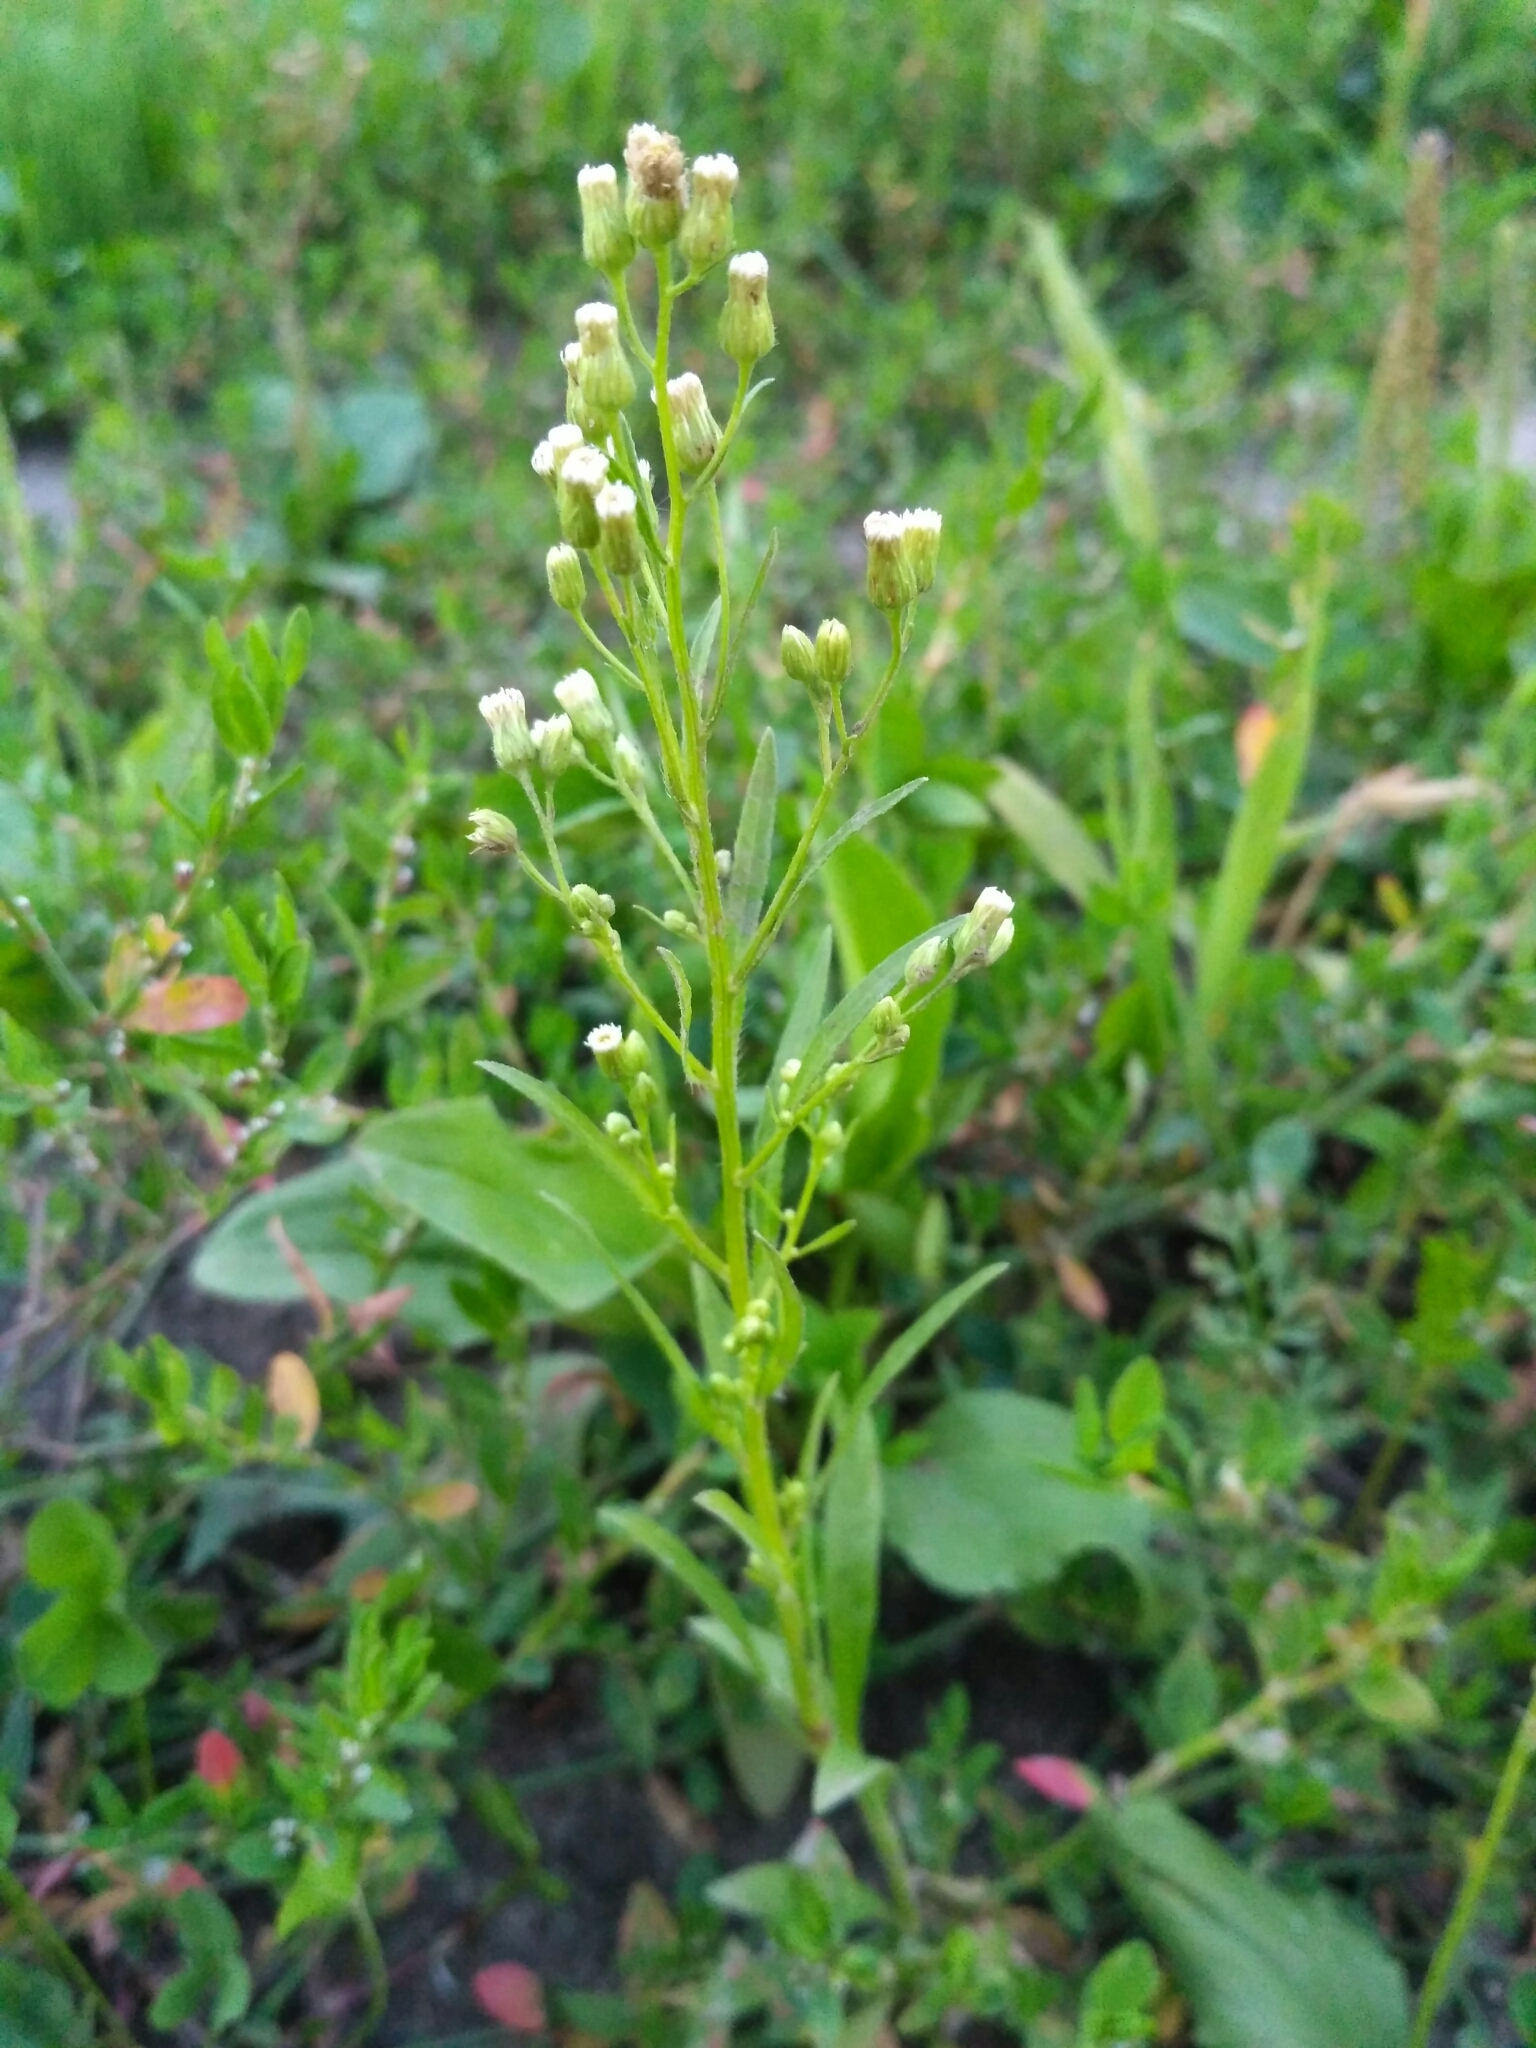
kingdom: Plantae
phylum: Tracheophyta
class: Magnoliopsida
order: Asterales
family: Asteraceae
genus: Erigeron
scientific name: Erigeron canadensis
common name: Canadian fleabane
